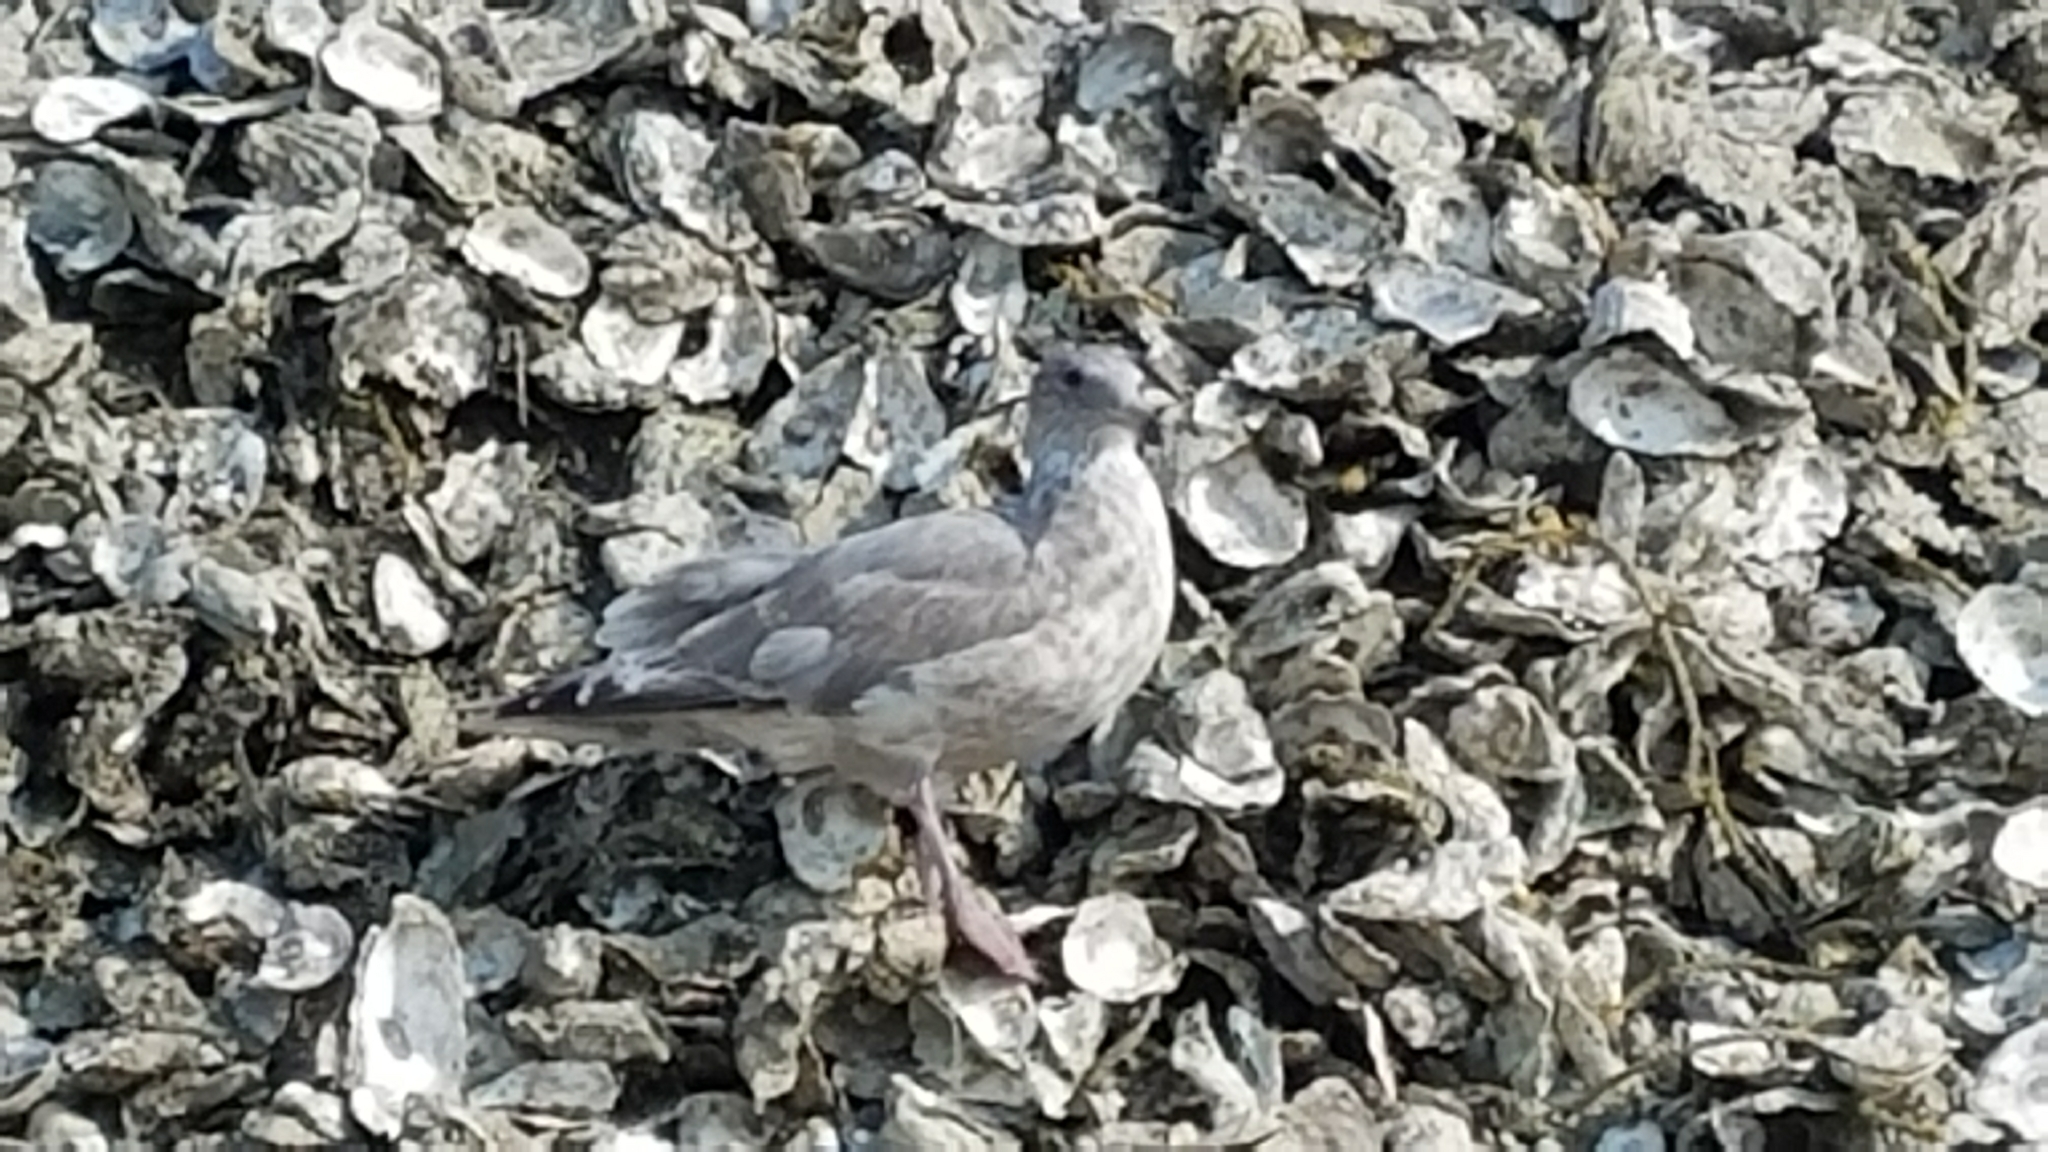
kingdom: Animalia
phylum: Chordata
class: Aves
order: Charadriiformes
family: Laridae
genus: Larus
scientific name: Larus
